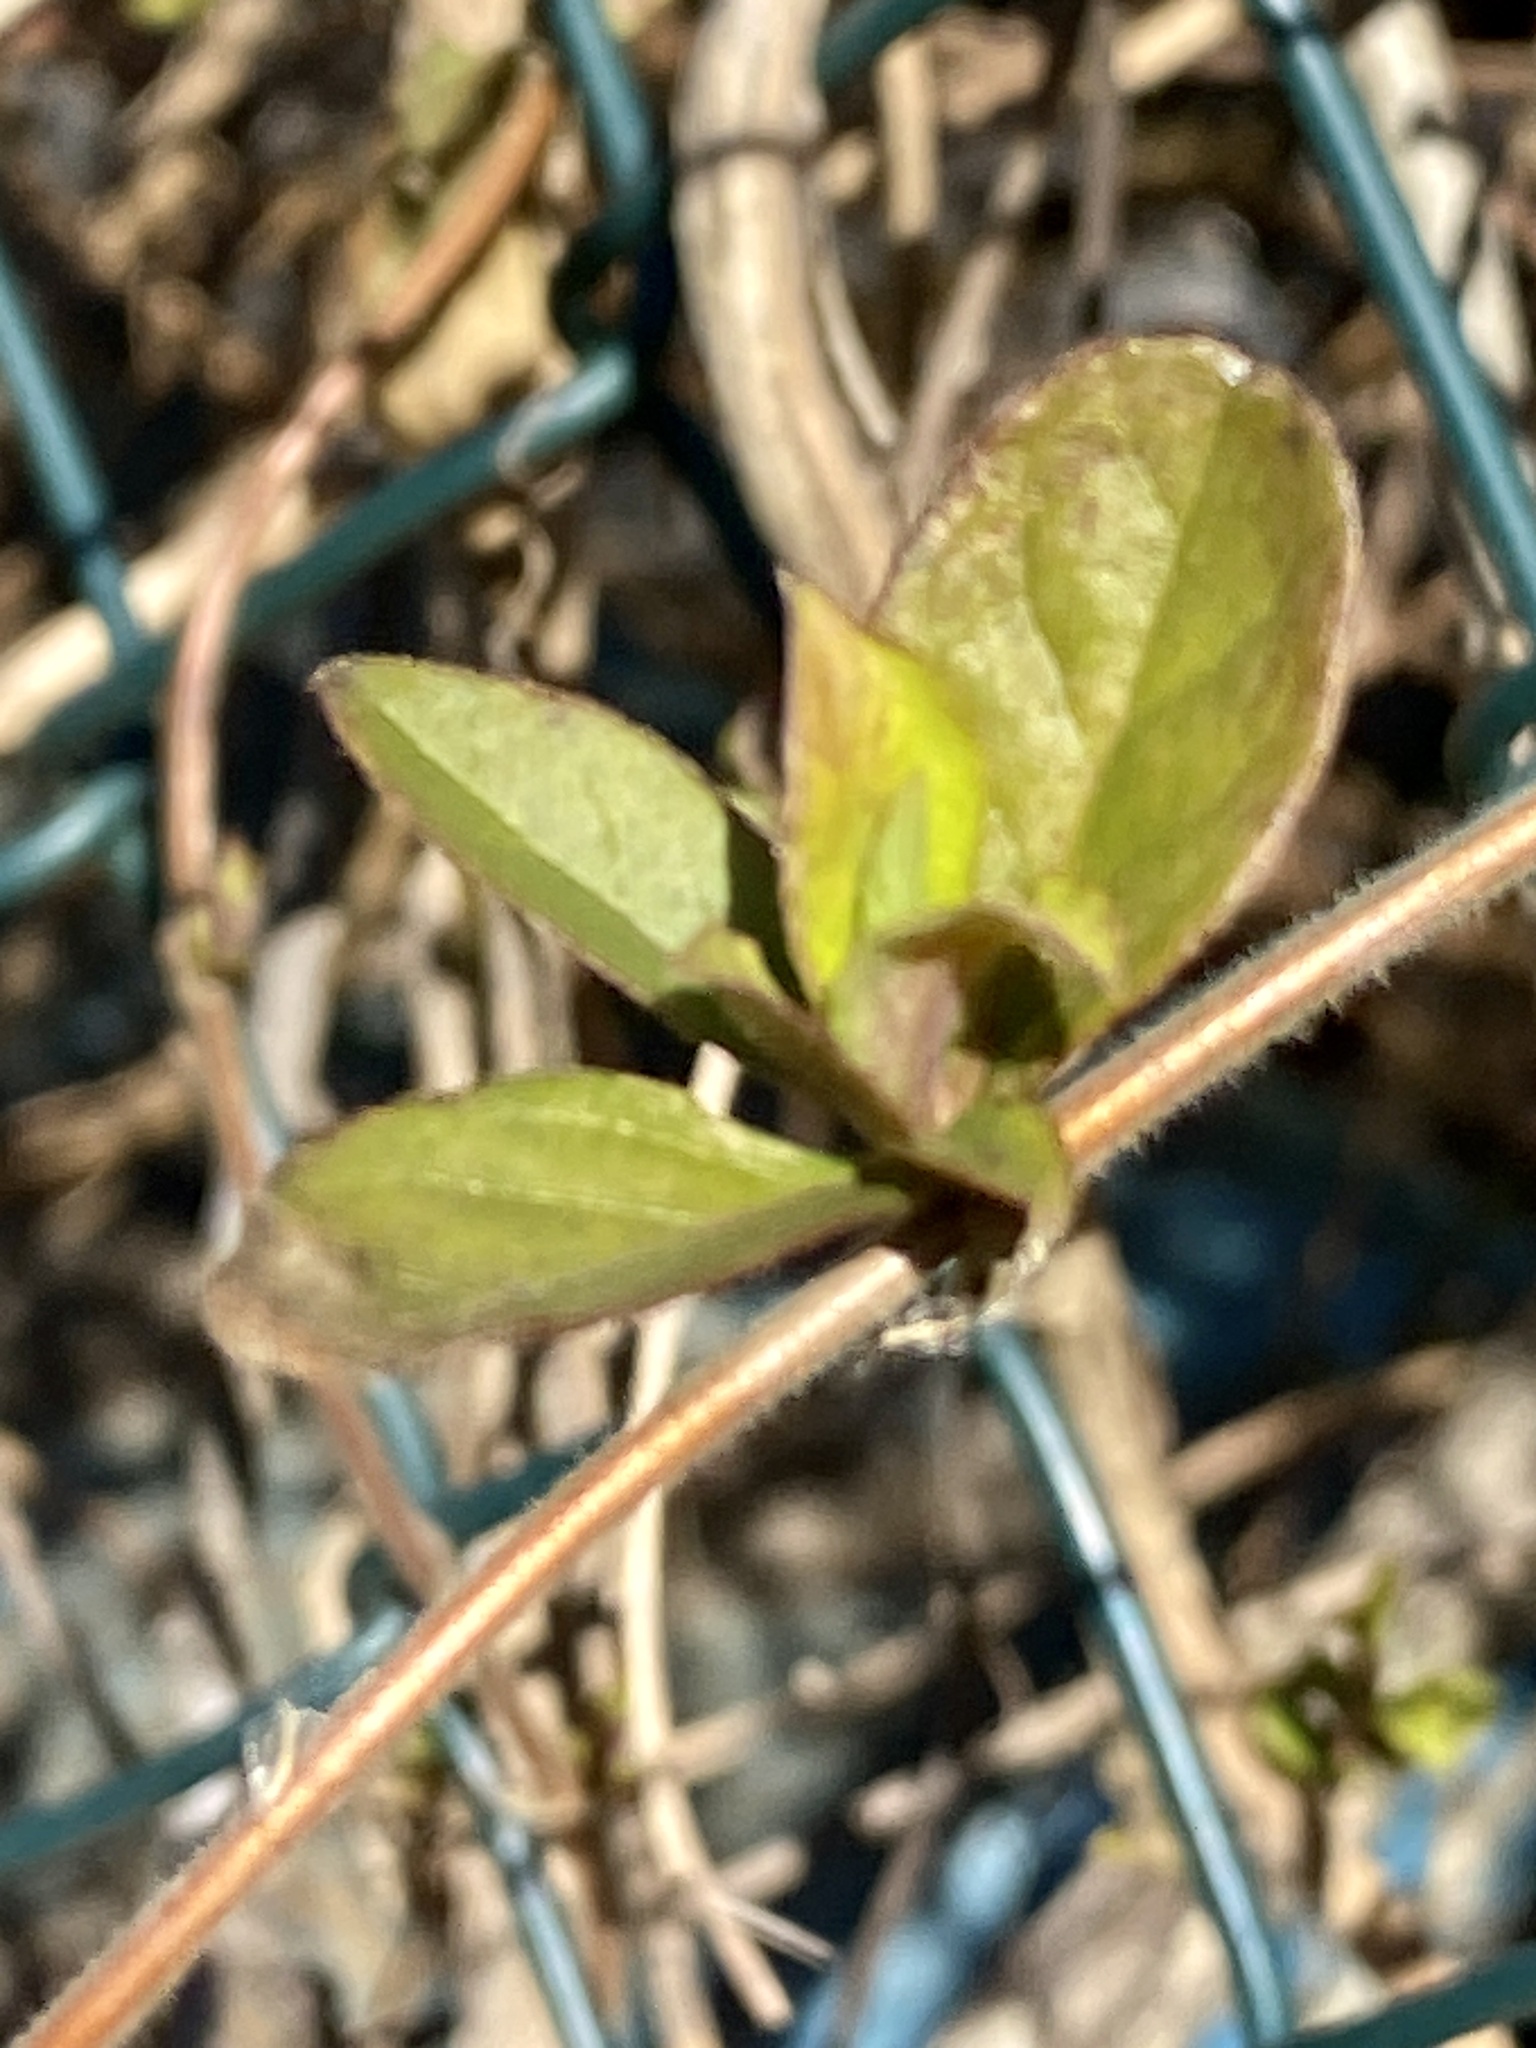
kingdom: Plantae
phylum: Tracheophyta
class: Magnoliopsida
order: Dipsacales
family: Caprifoliaceae
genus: Lonicera
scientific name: Lonicera japonica
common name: Japanese honeysuckle
